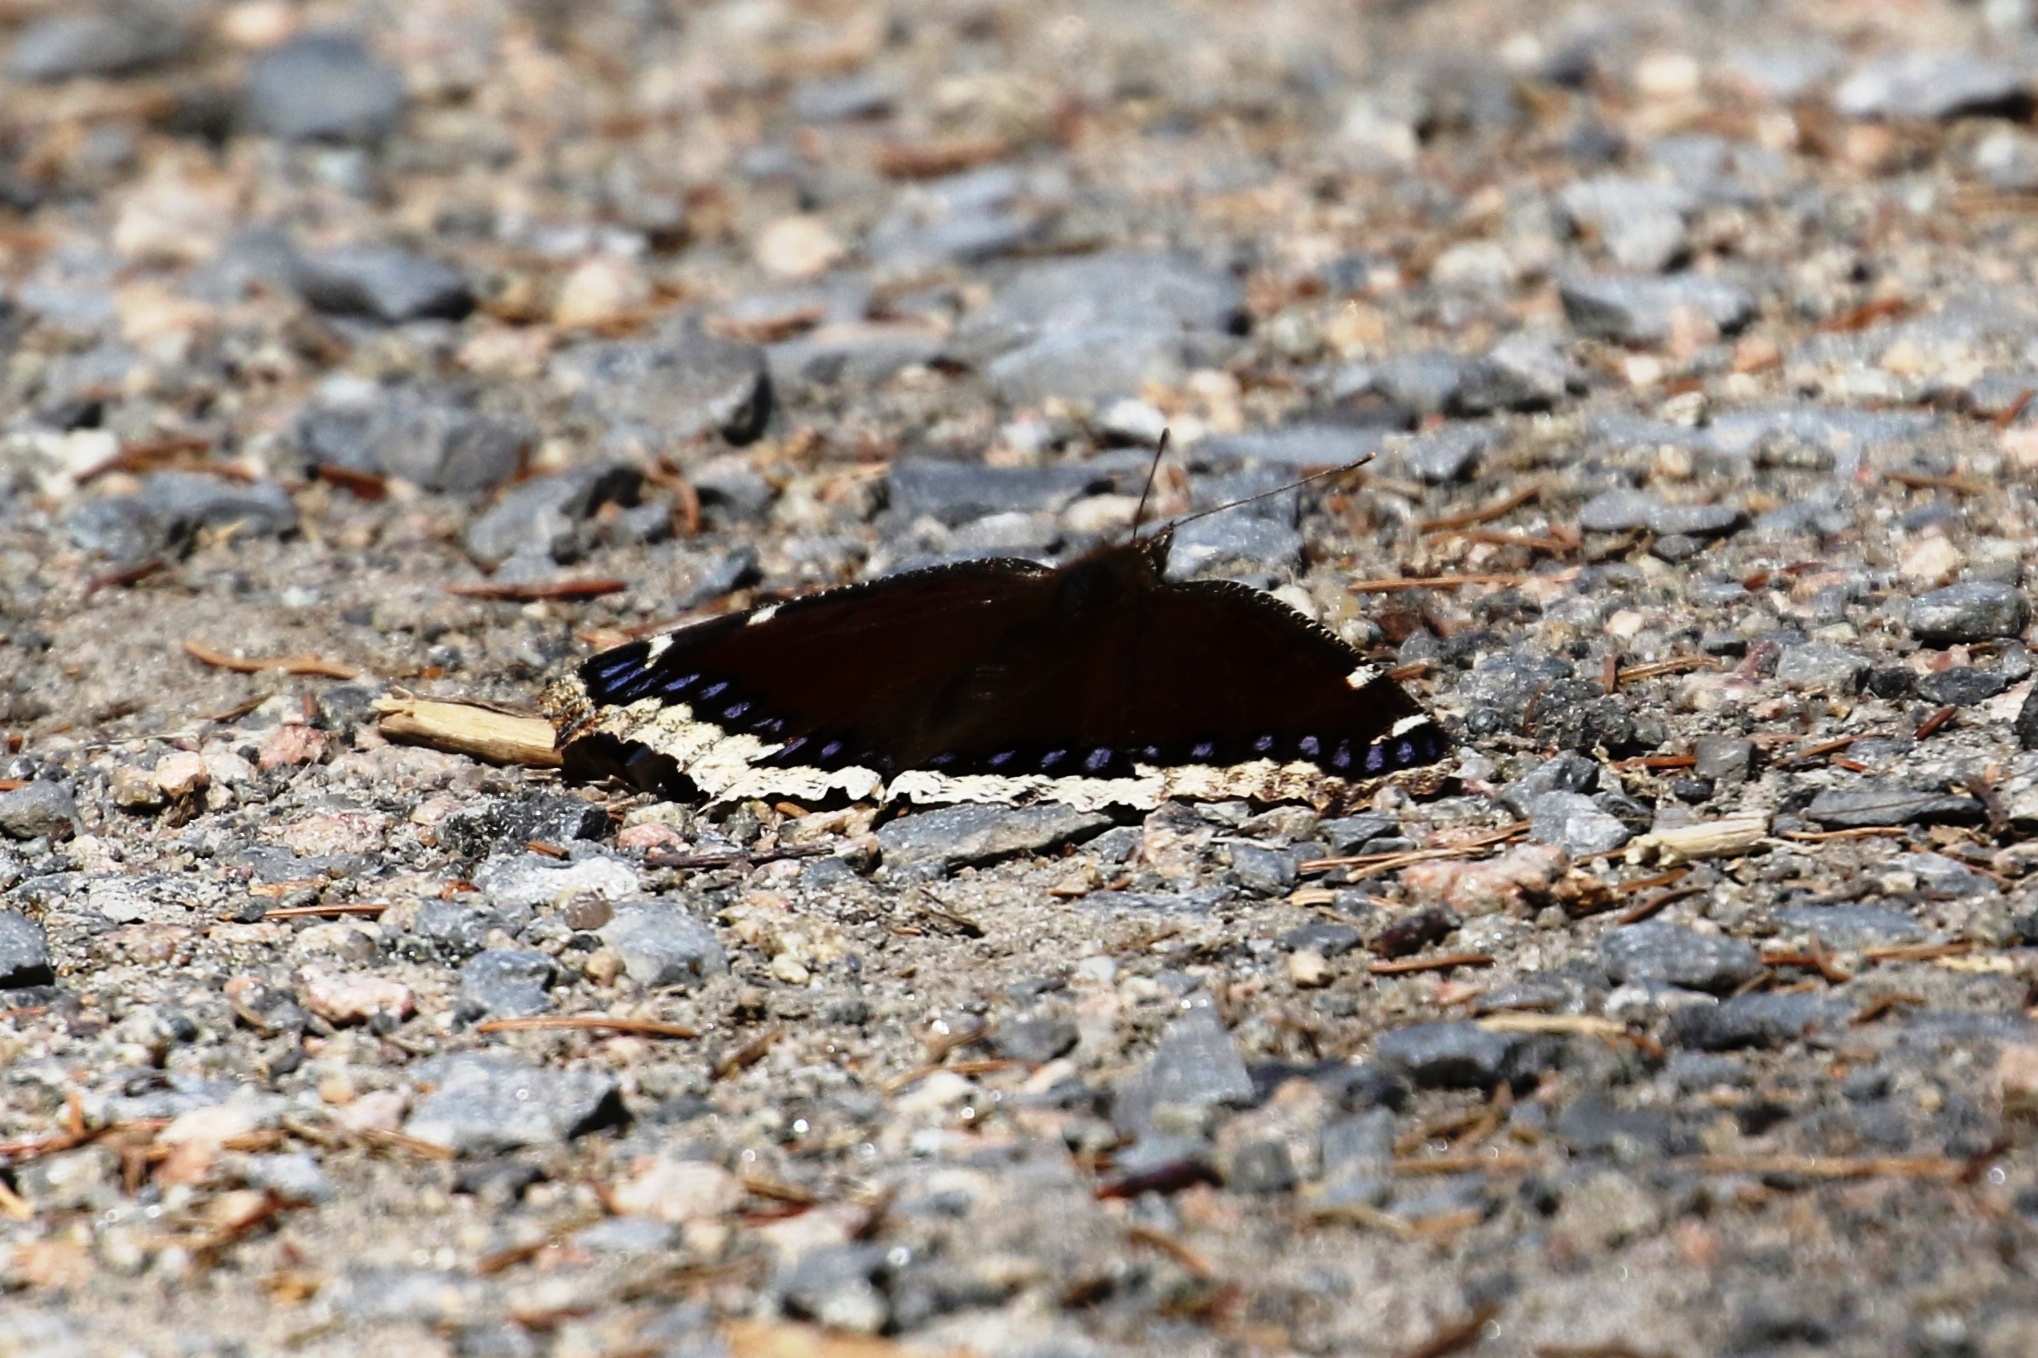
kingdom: Animalia
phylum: Arthropoda
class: Insecta
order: Lepidoptera
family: Nymphalidae
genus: Nymphalis
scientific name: Nymphalis antiopa
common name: Camberwell beauty
